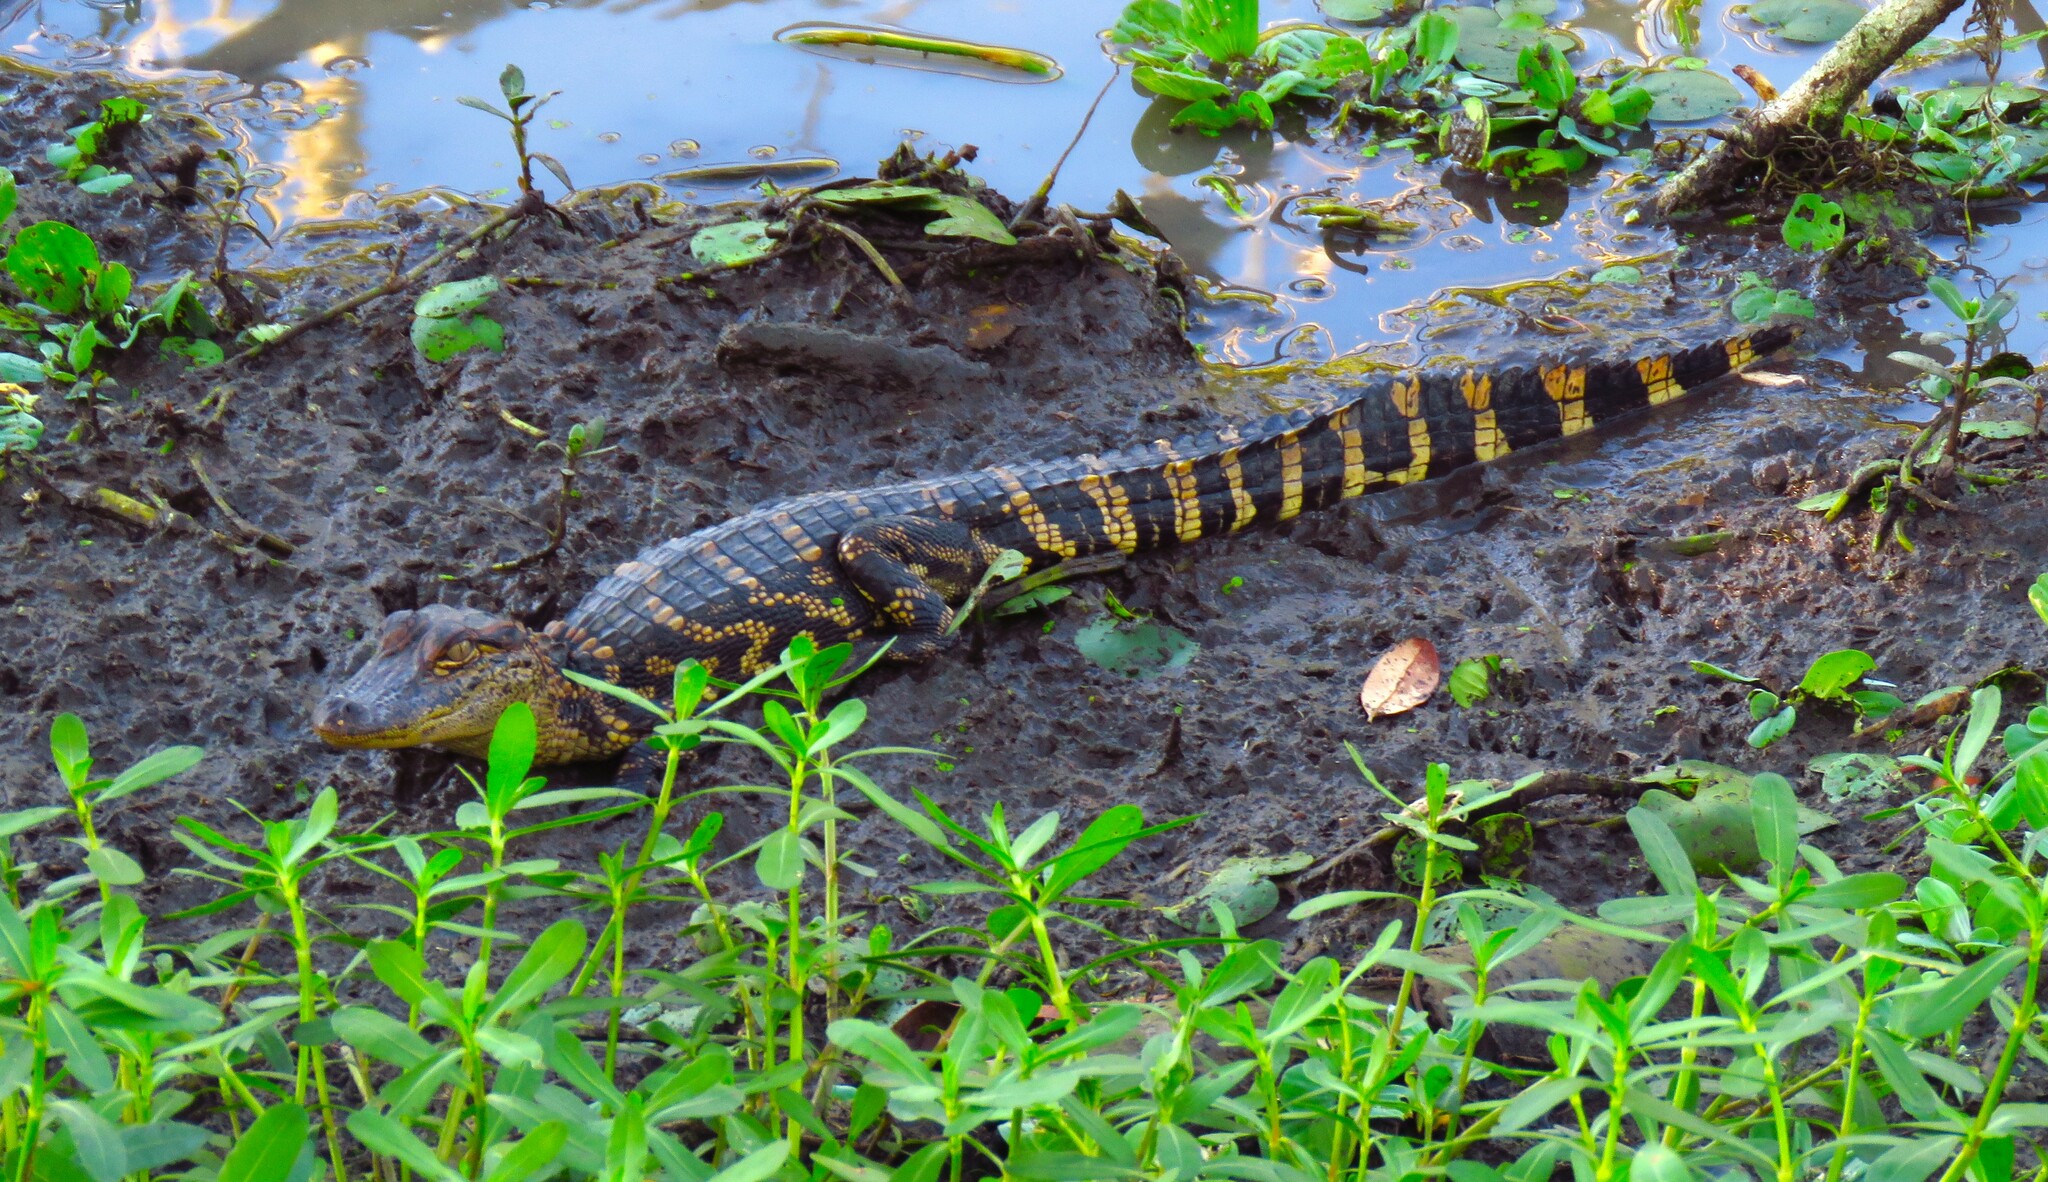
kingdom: Animalia
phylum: Chordata
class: Crocodylia
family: Alligatoridae
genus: Alligator
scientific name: Alligator mississippiensis
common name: American alligator
